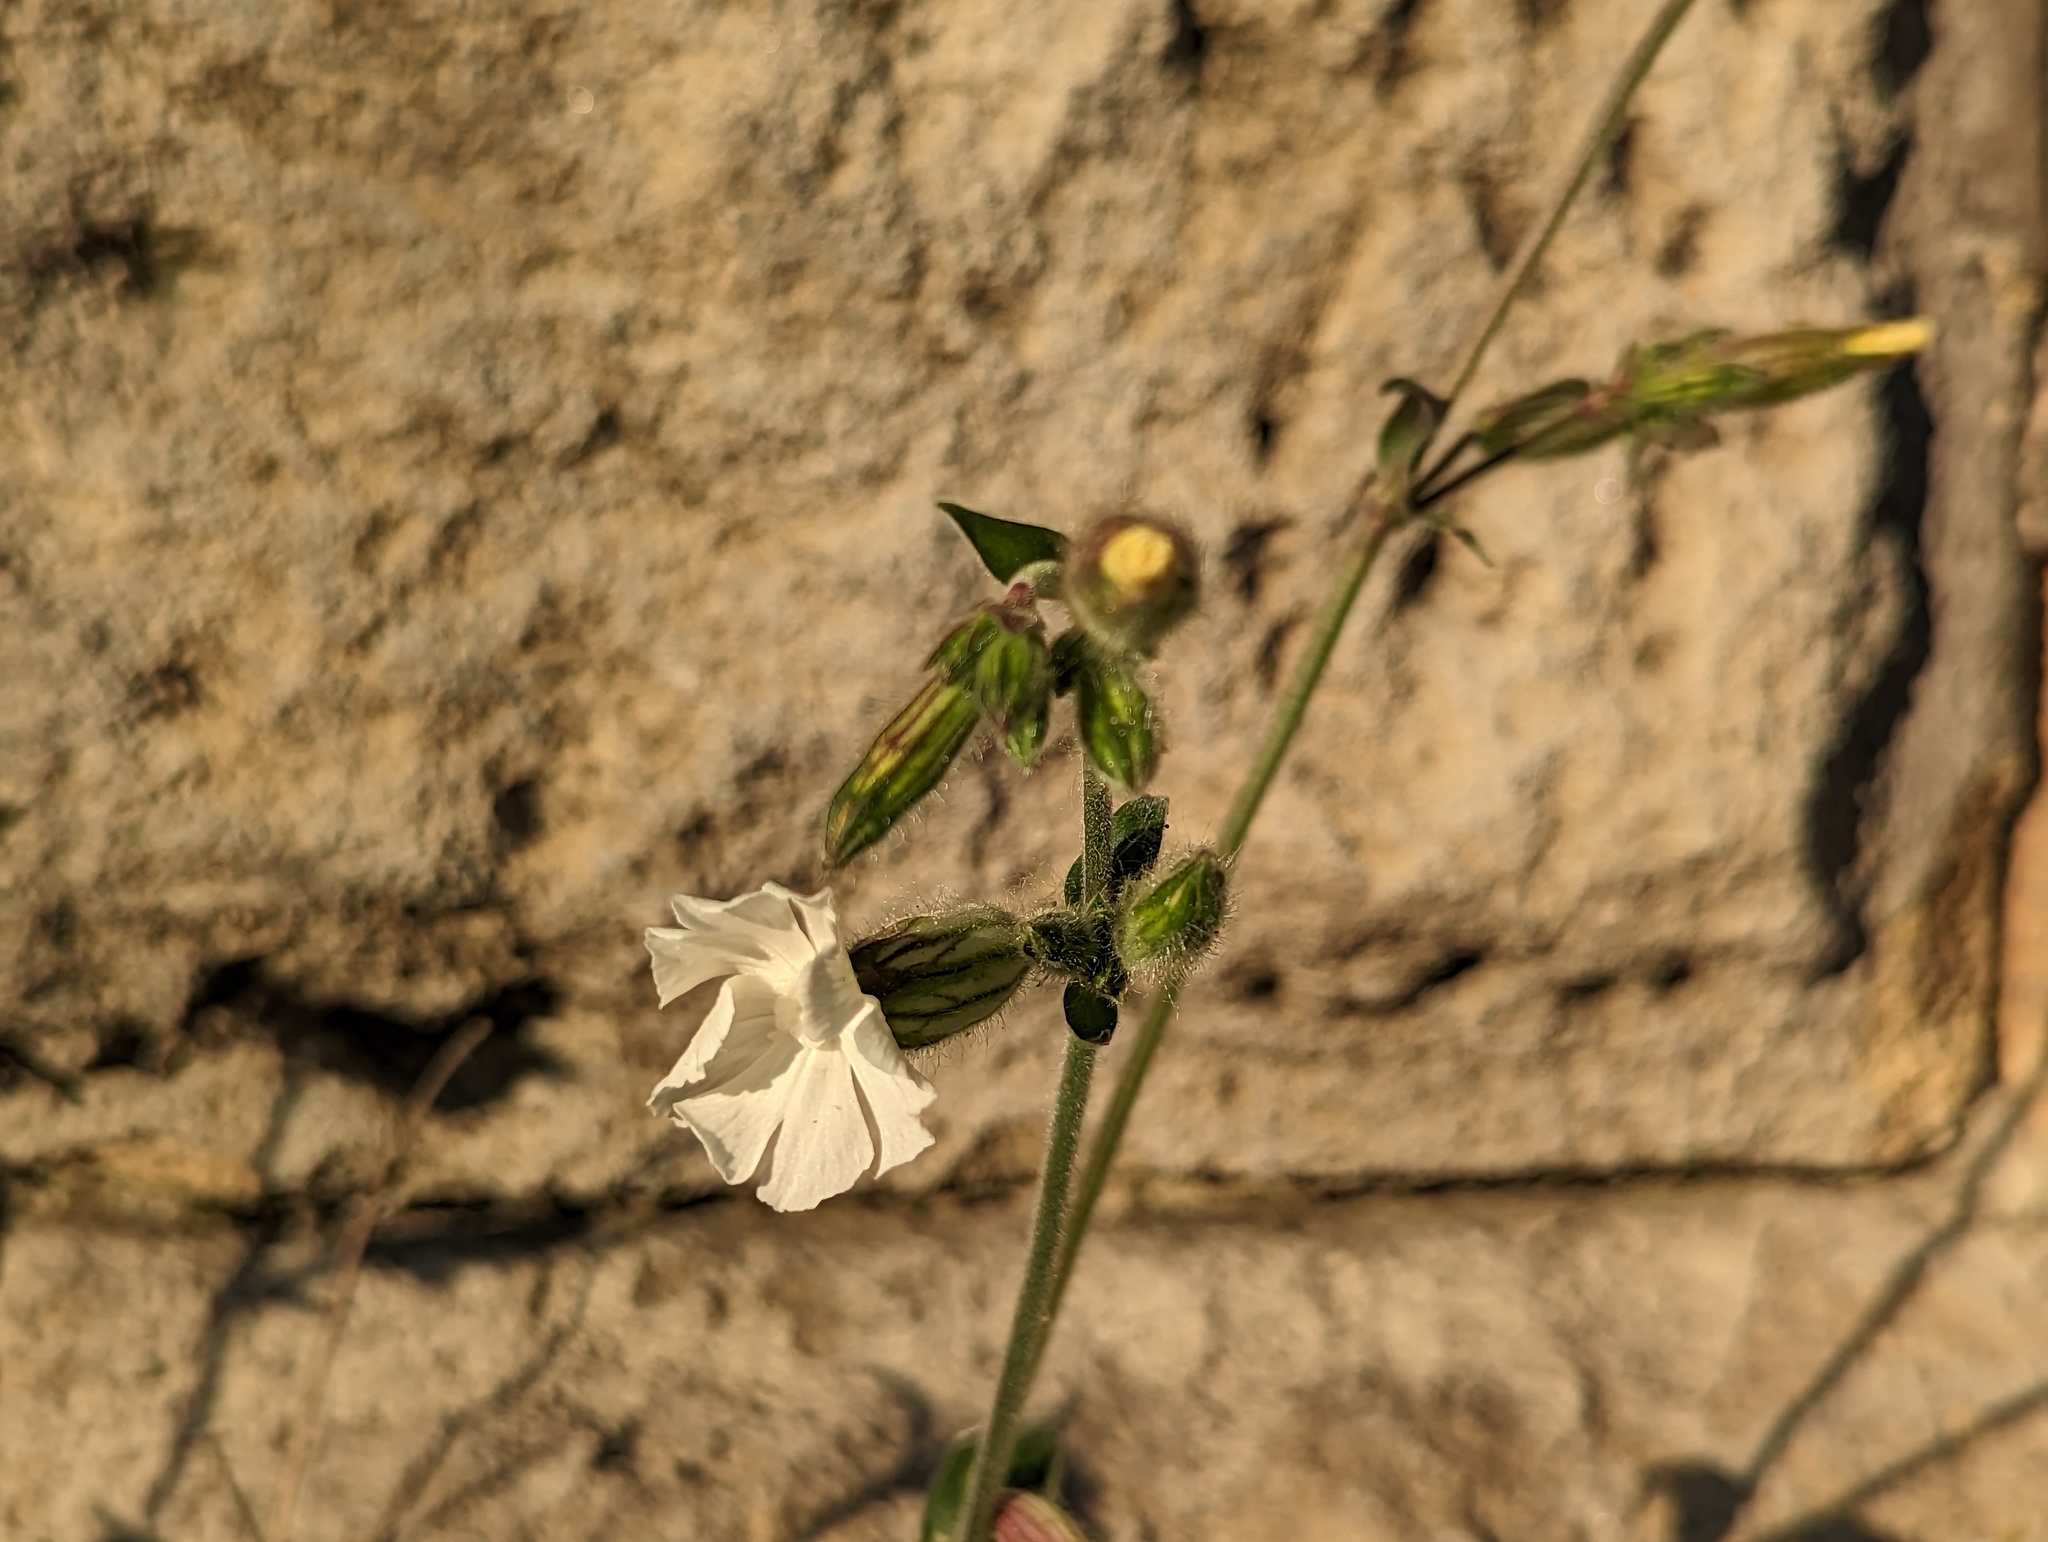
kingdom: Plantae
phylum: Tracheophyta
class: Magnoliopsida
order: Caryophyllales
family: Caryophyllaceae
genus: Silene
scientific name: Silene latifolia
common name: White campion
